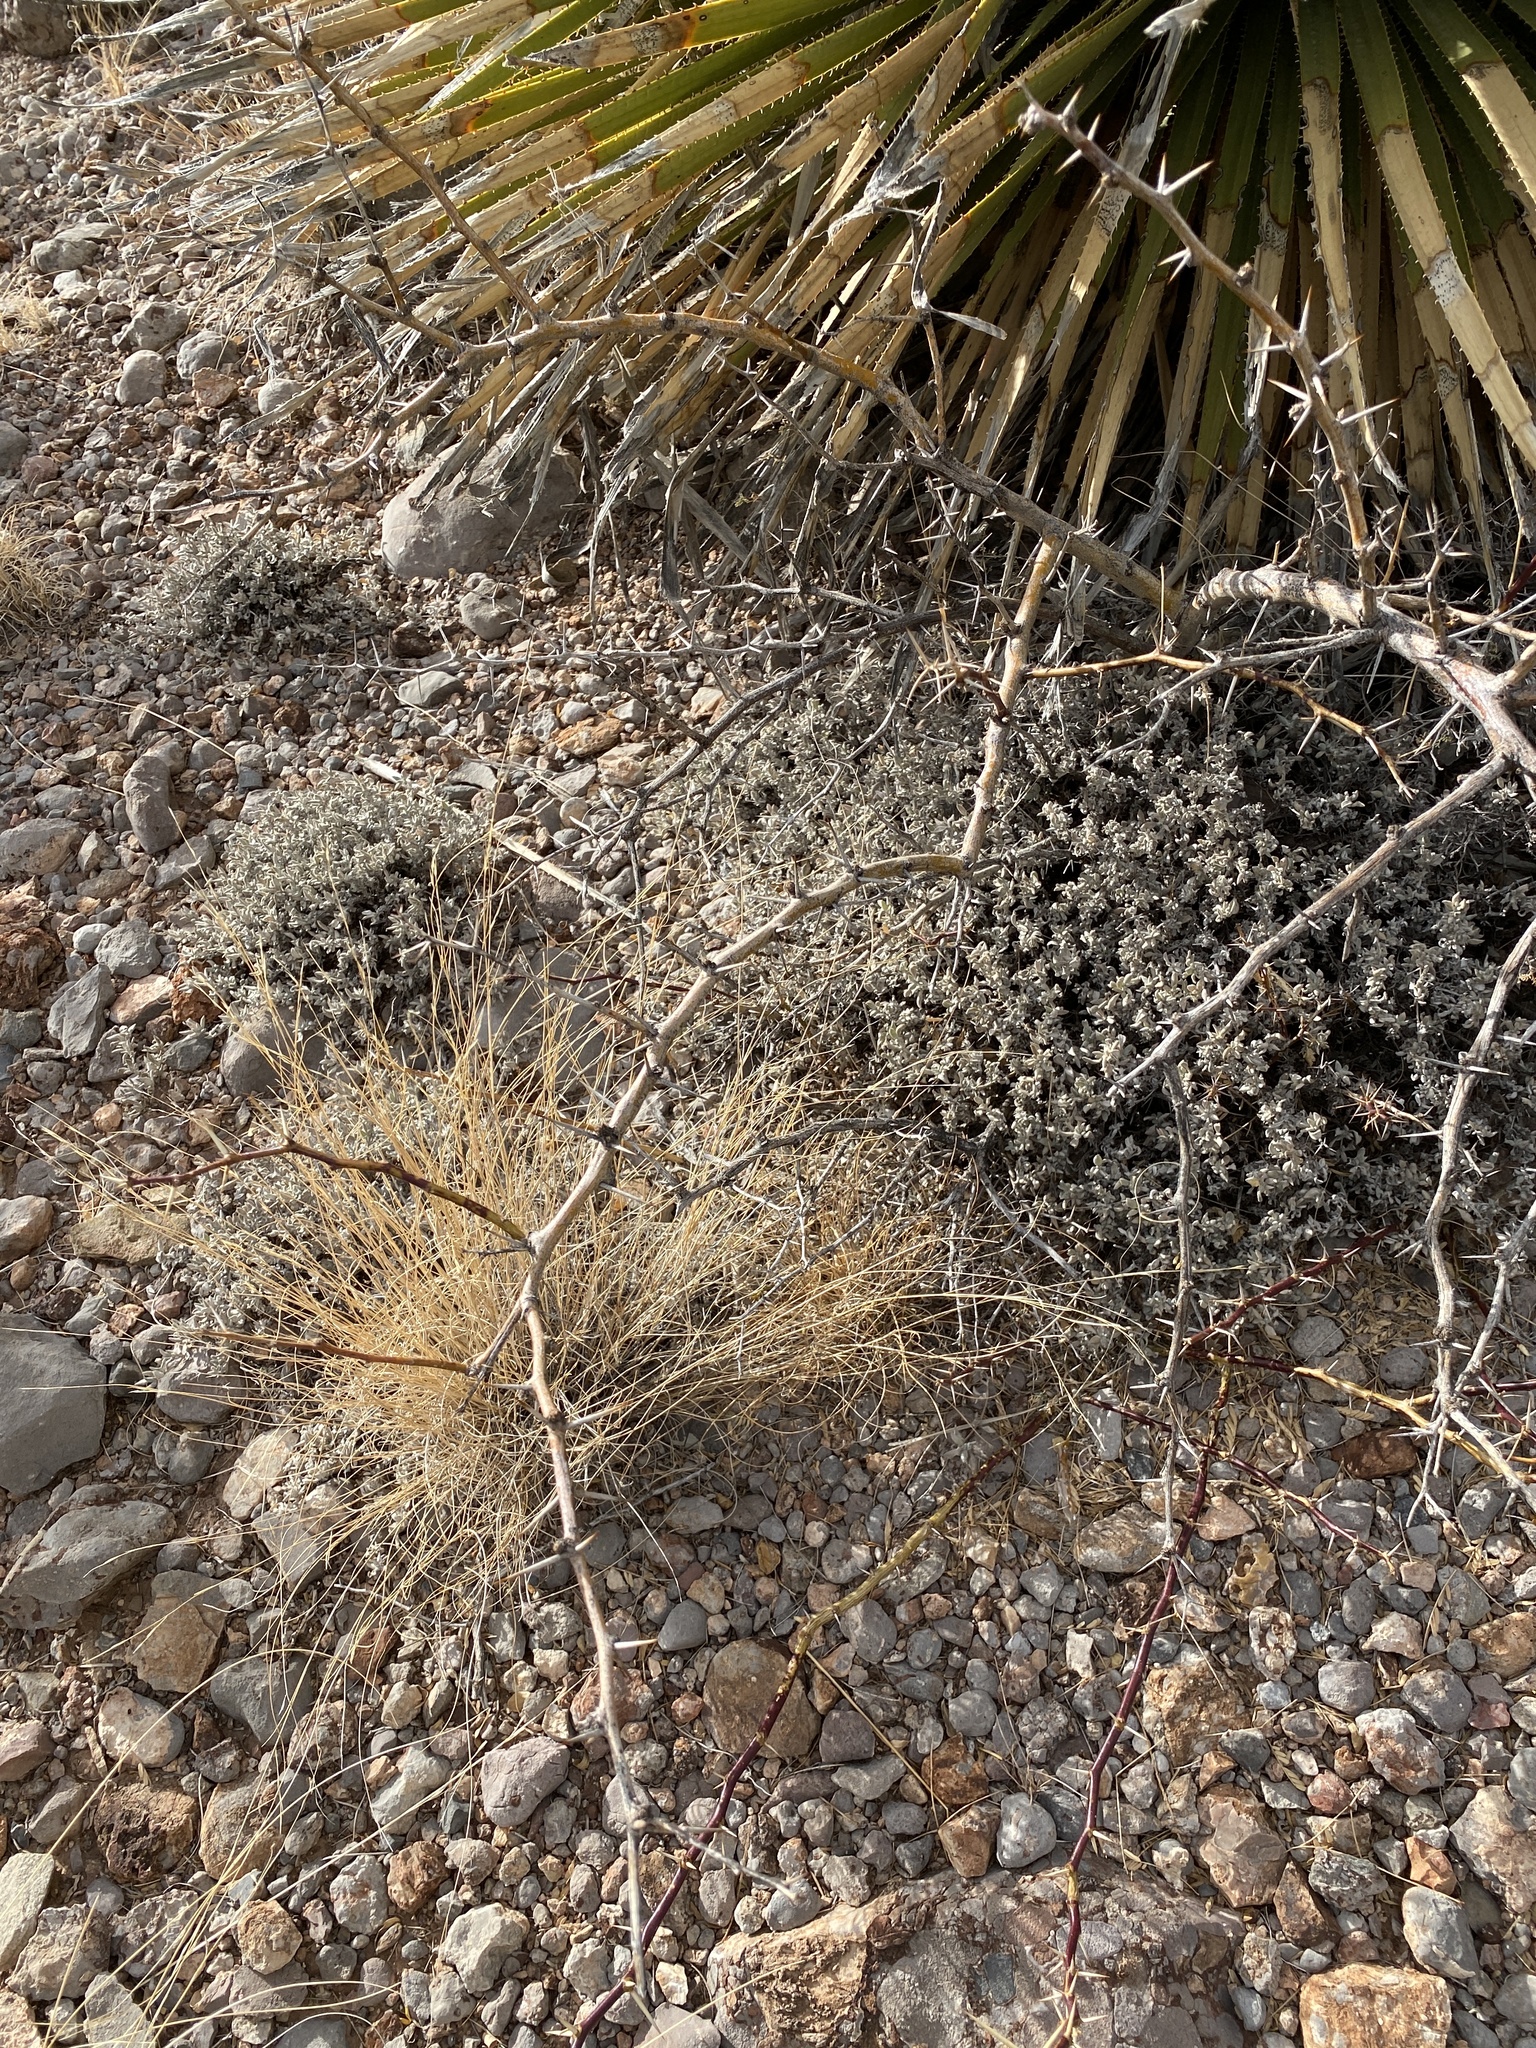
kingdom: Plantae
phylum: Tracheophyta
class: Magnoliopsida
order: Fabales
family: Fabaceae
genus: Prosopis
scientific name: Prosopis glandulosa
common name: Honey mesquite
